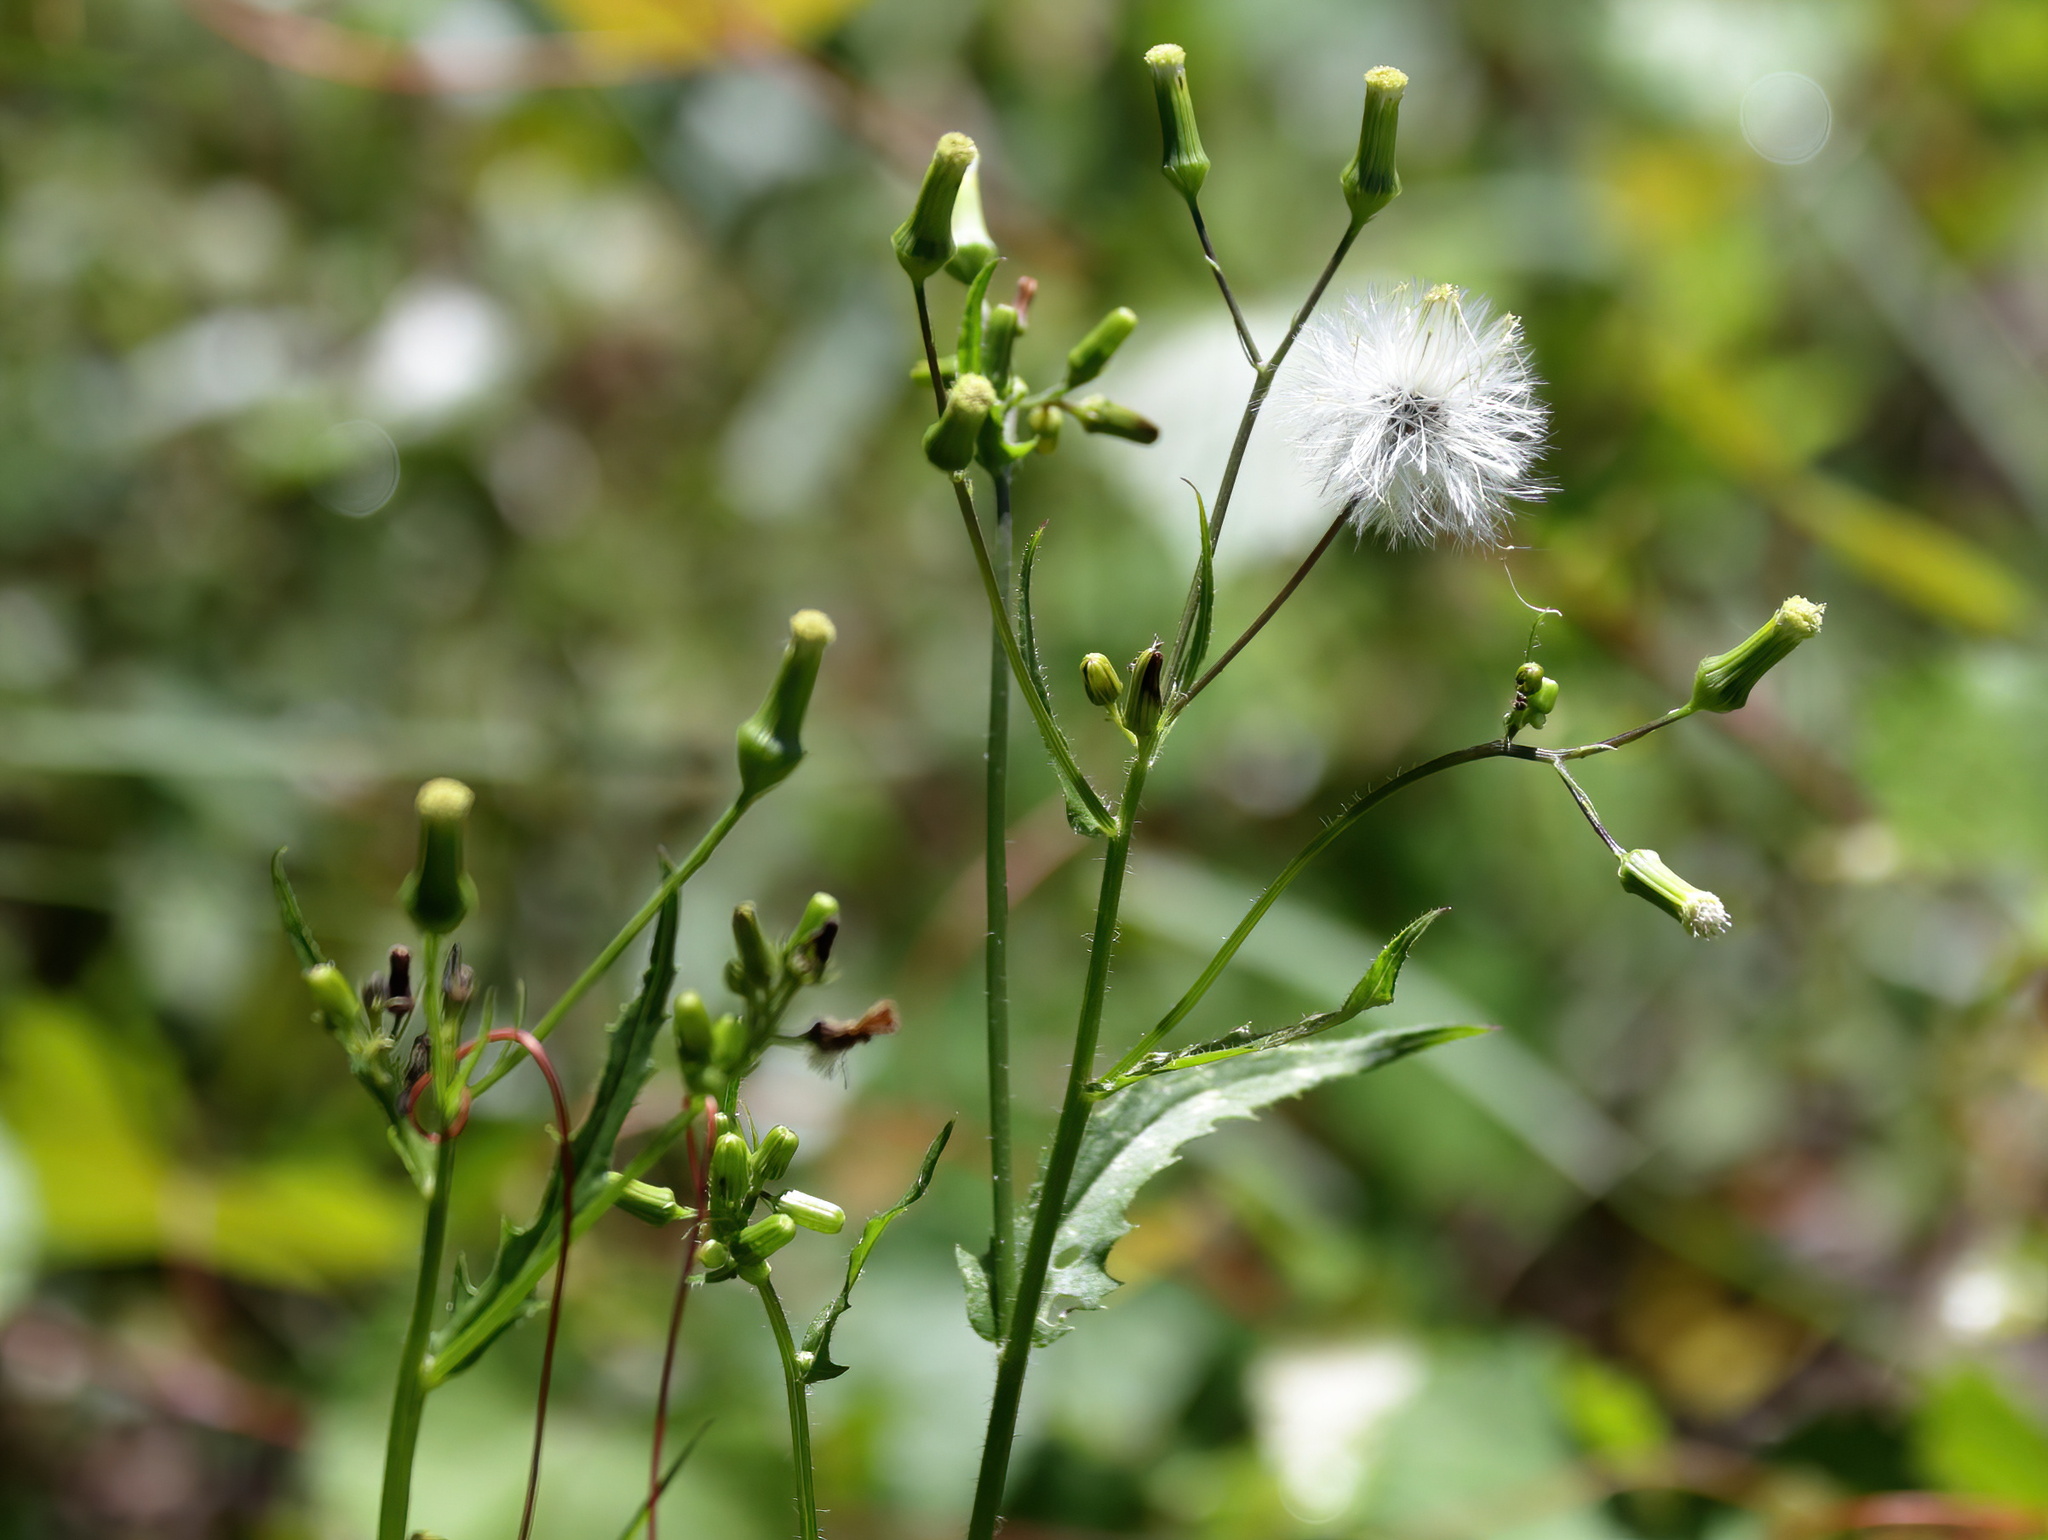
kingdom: Plantae
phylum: Tracheophyta
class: Magnoliopsida
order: Asterales
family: Asteraceae
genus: Erechtites
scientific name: Erechtites hieraciifolius
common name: American burnweed
